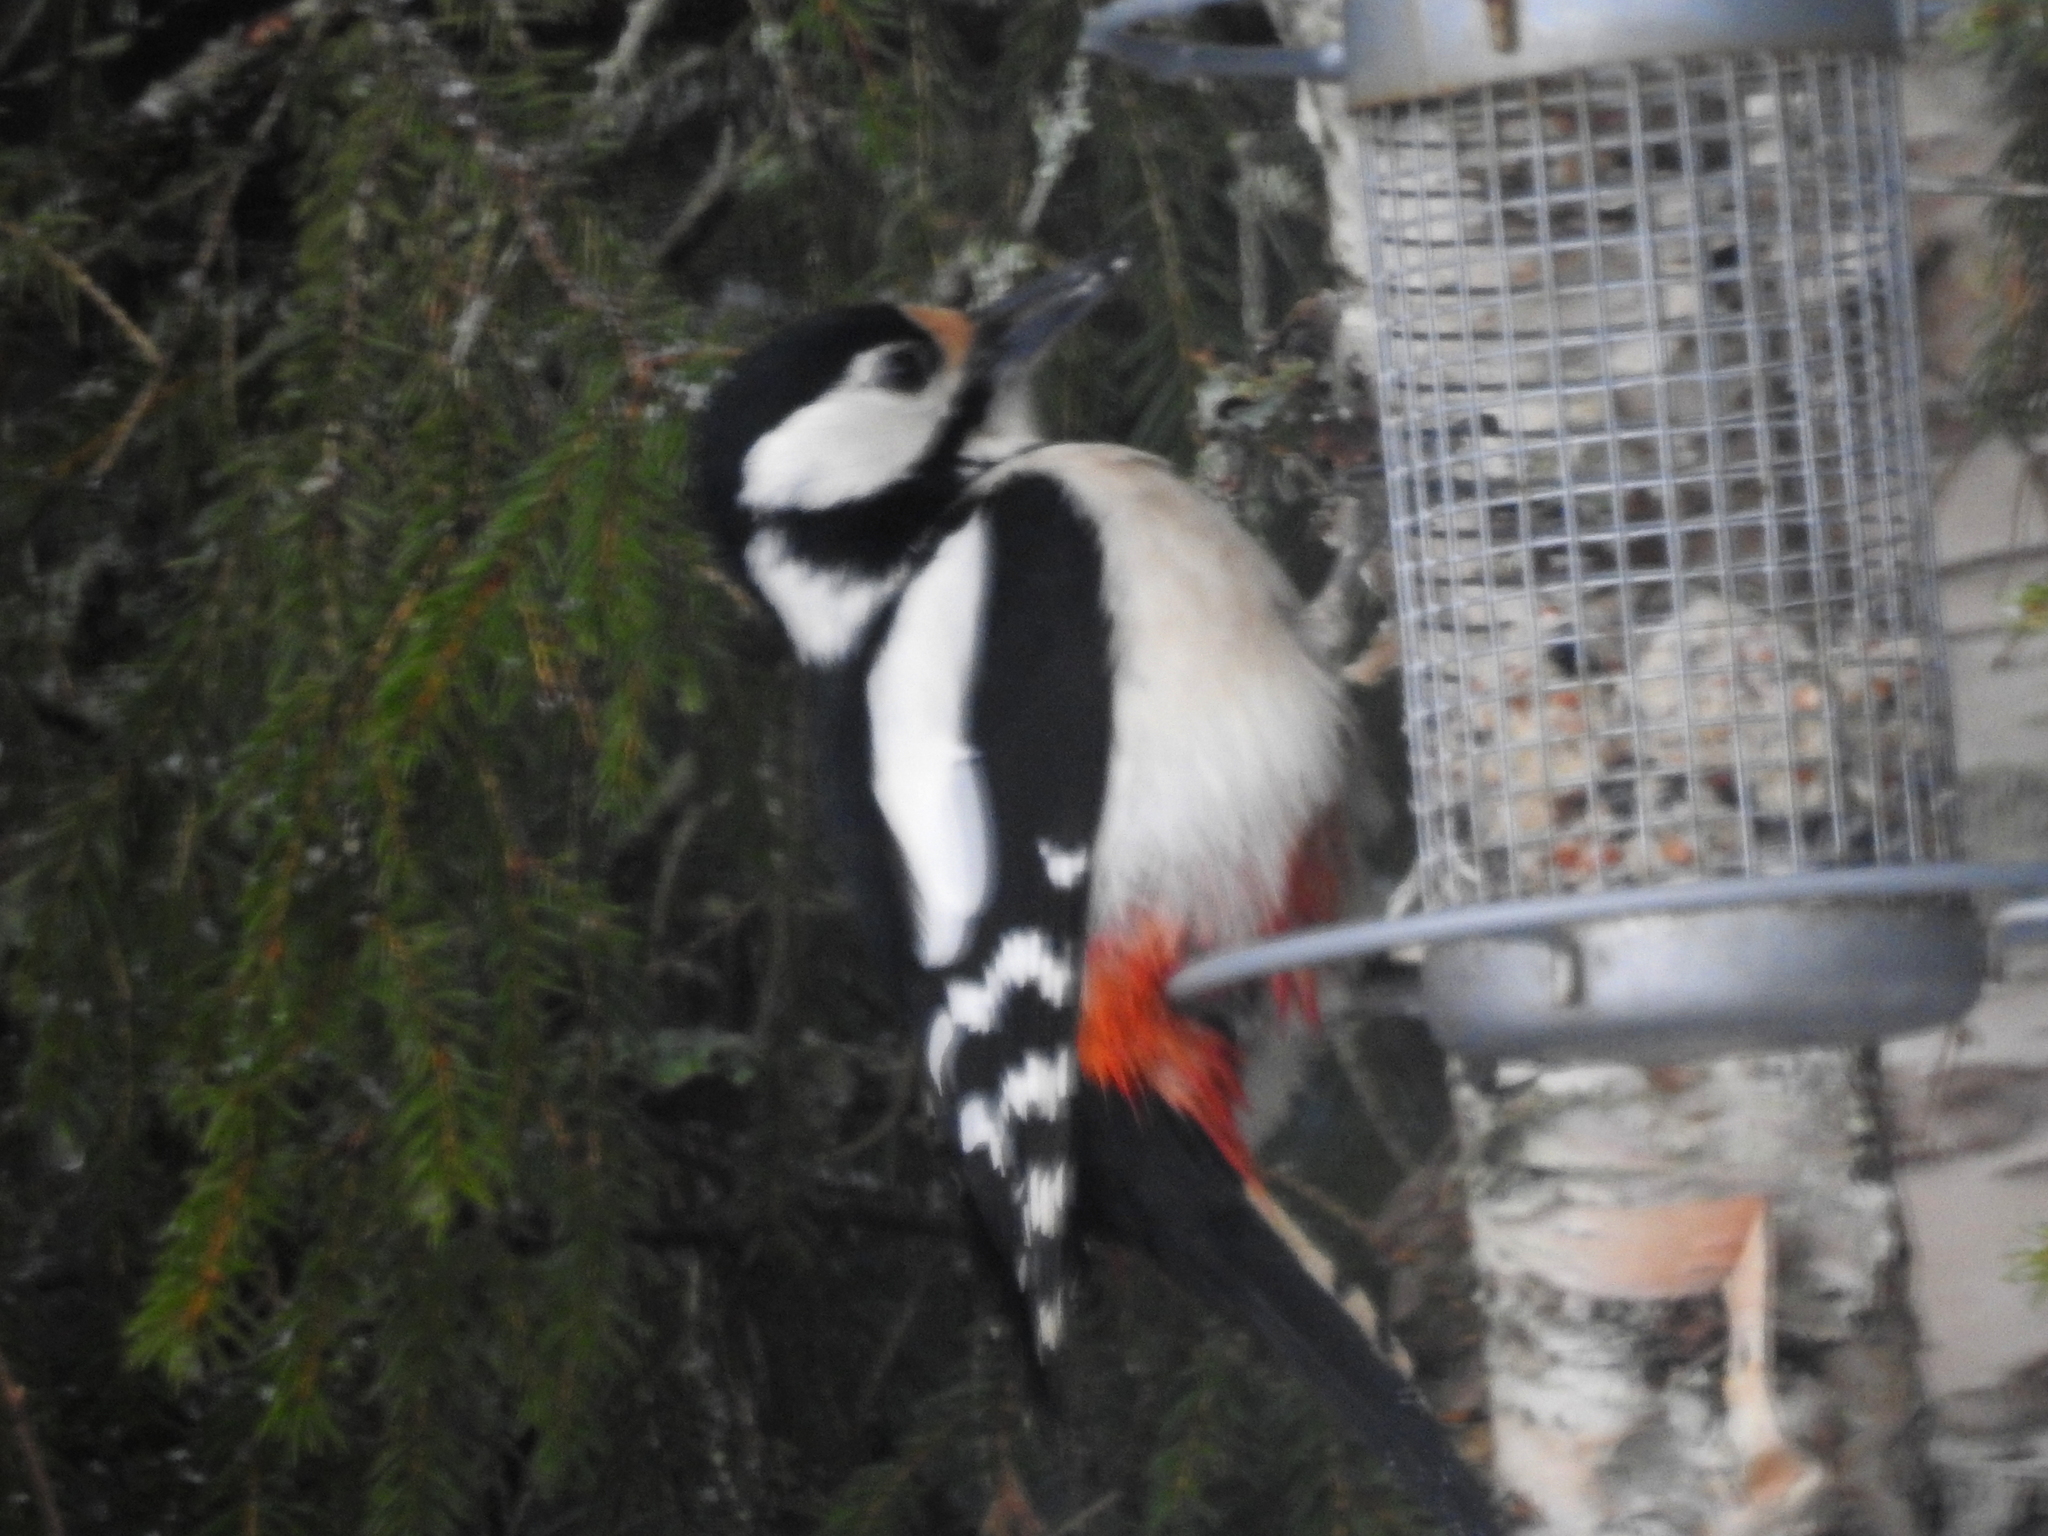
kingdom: Animalia
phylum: Chordata
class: Aves
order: Piciformes
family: Picidae
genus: Dendrocopos
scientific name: Dendrocopos major
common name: Great spotted woodpecker
